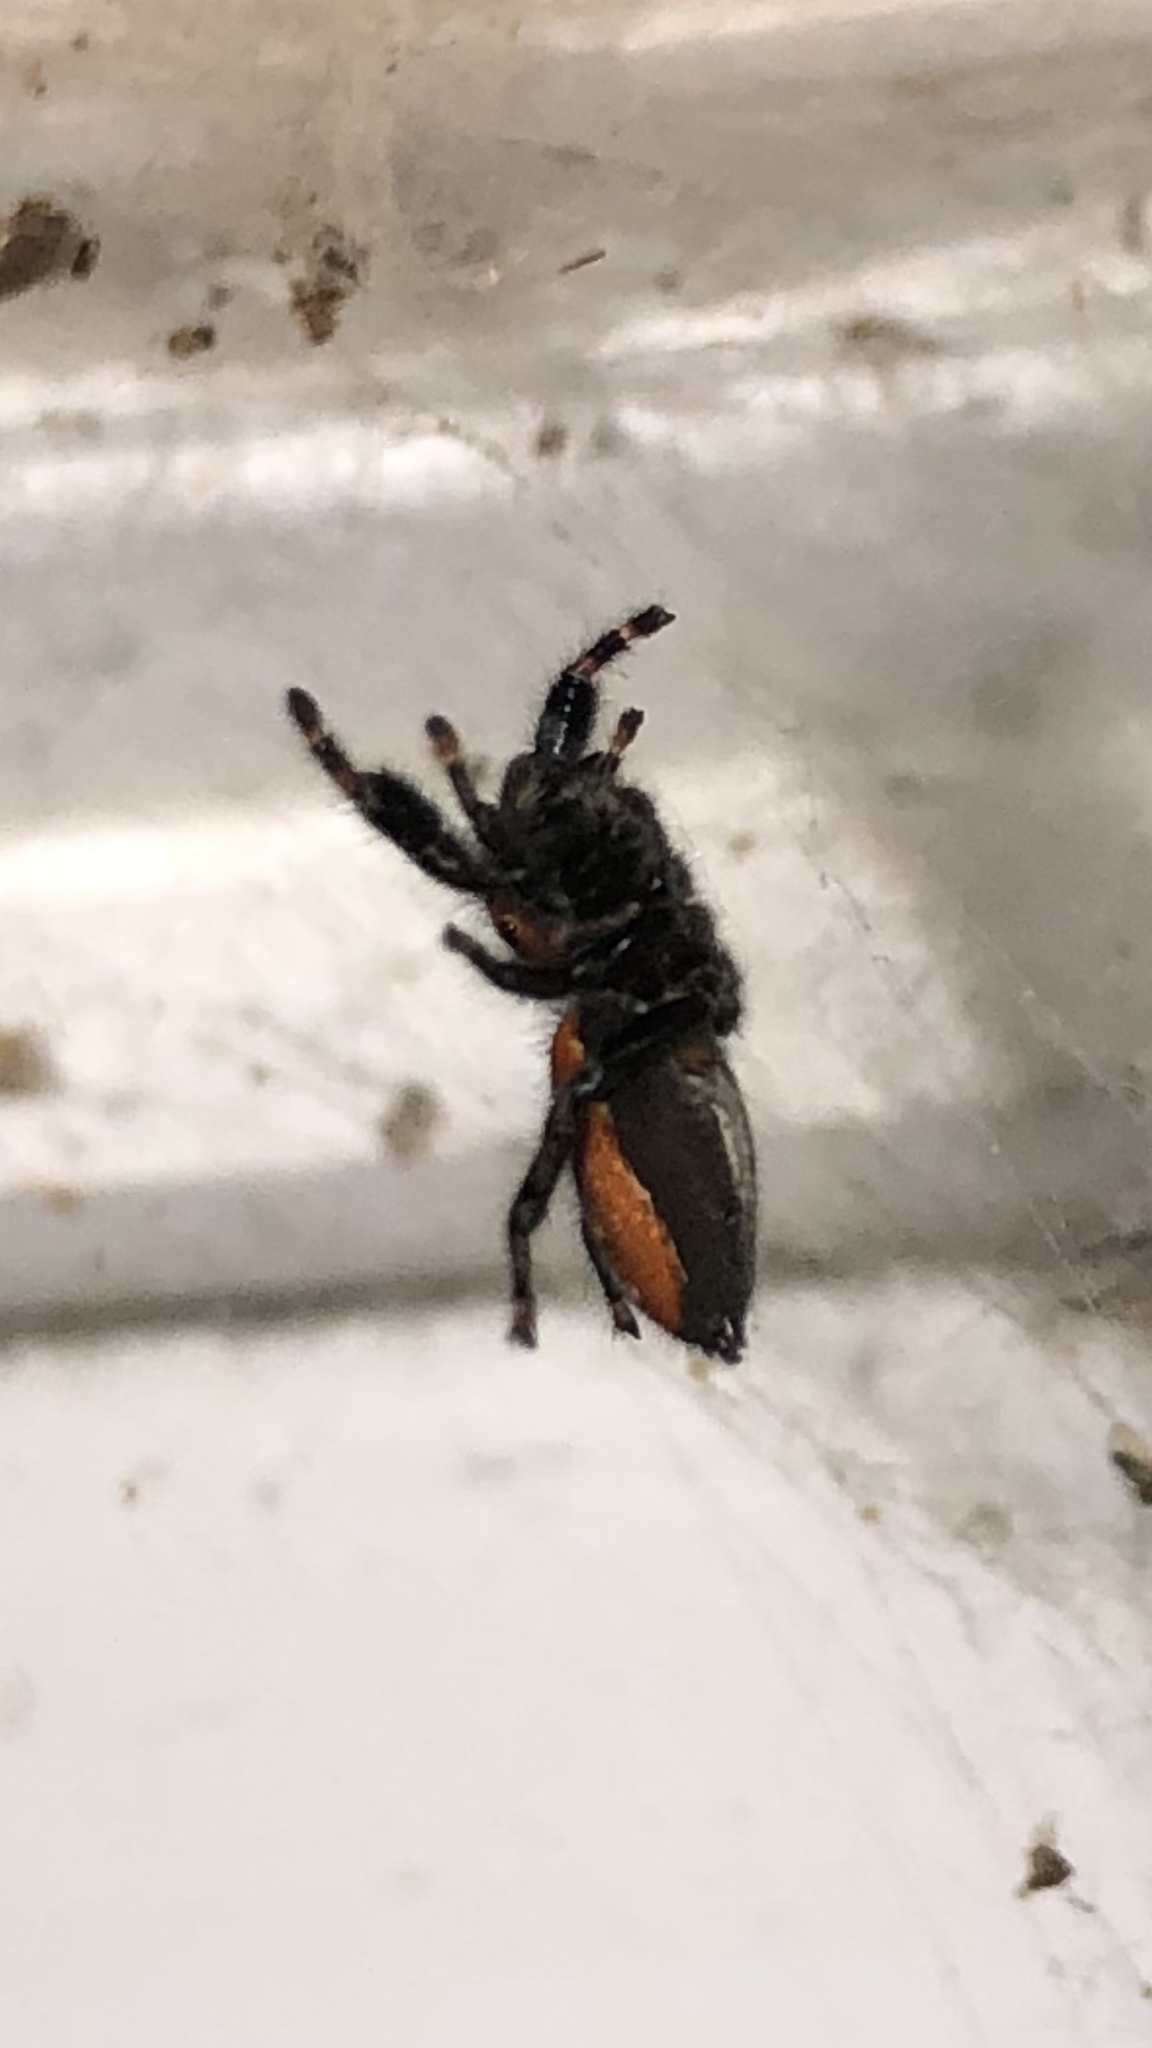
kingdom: Animalia
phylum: Arthropoda
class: Arachnida
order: Araneae
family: Salticidae
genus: Phidippus
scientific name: Phidippus cardinalis
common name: Cardinal jumper
